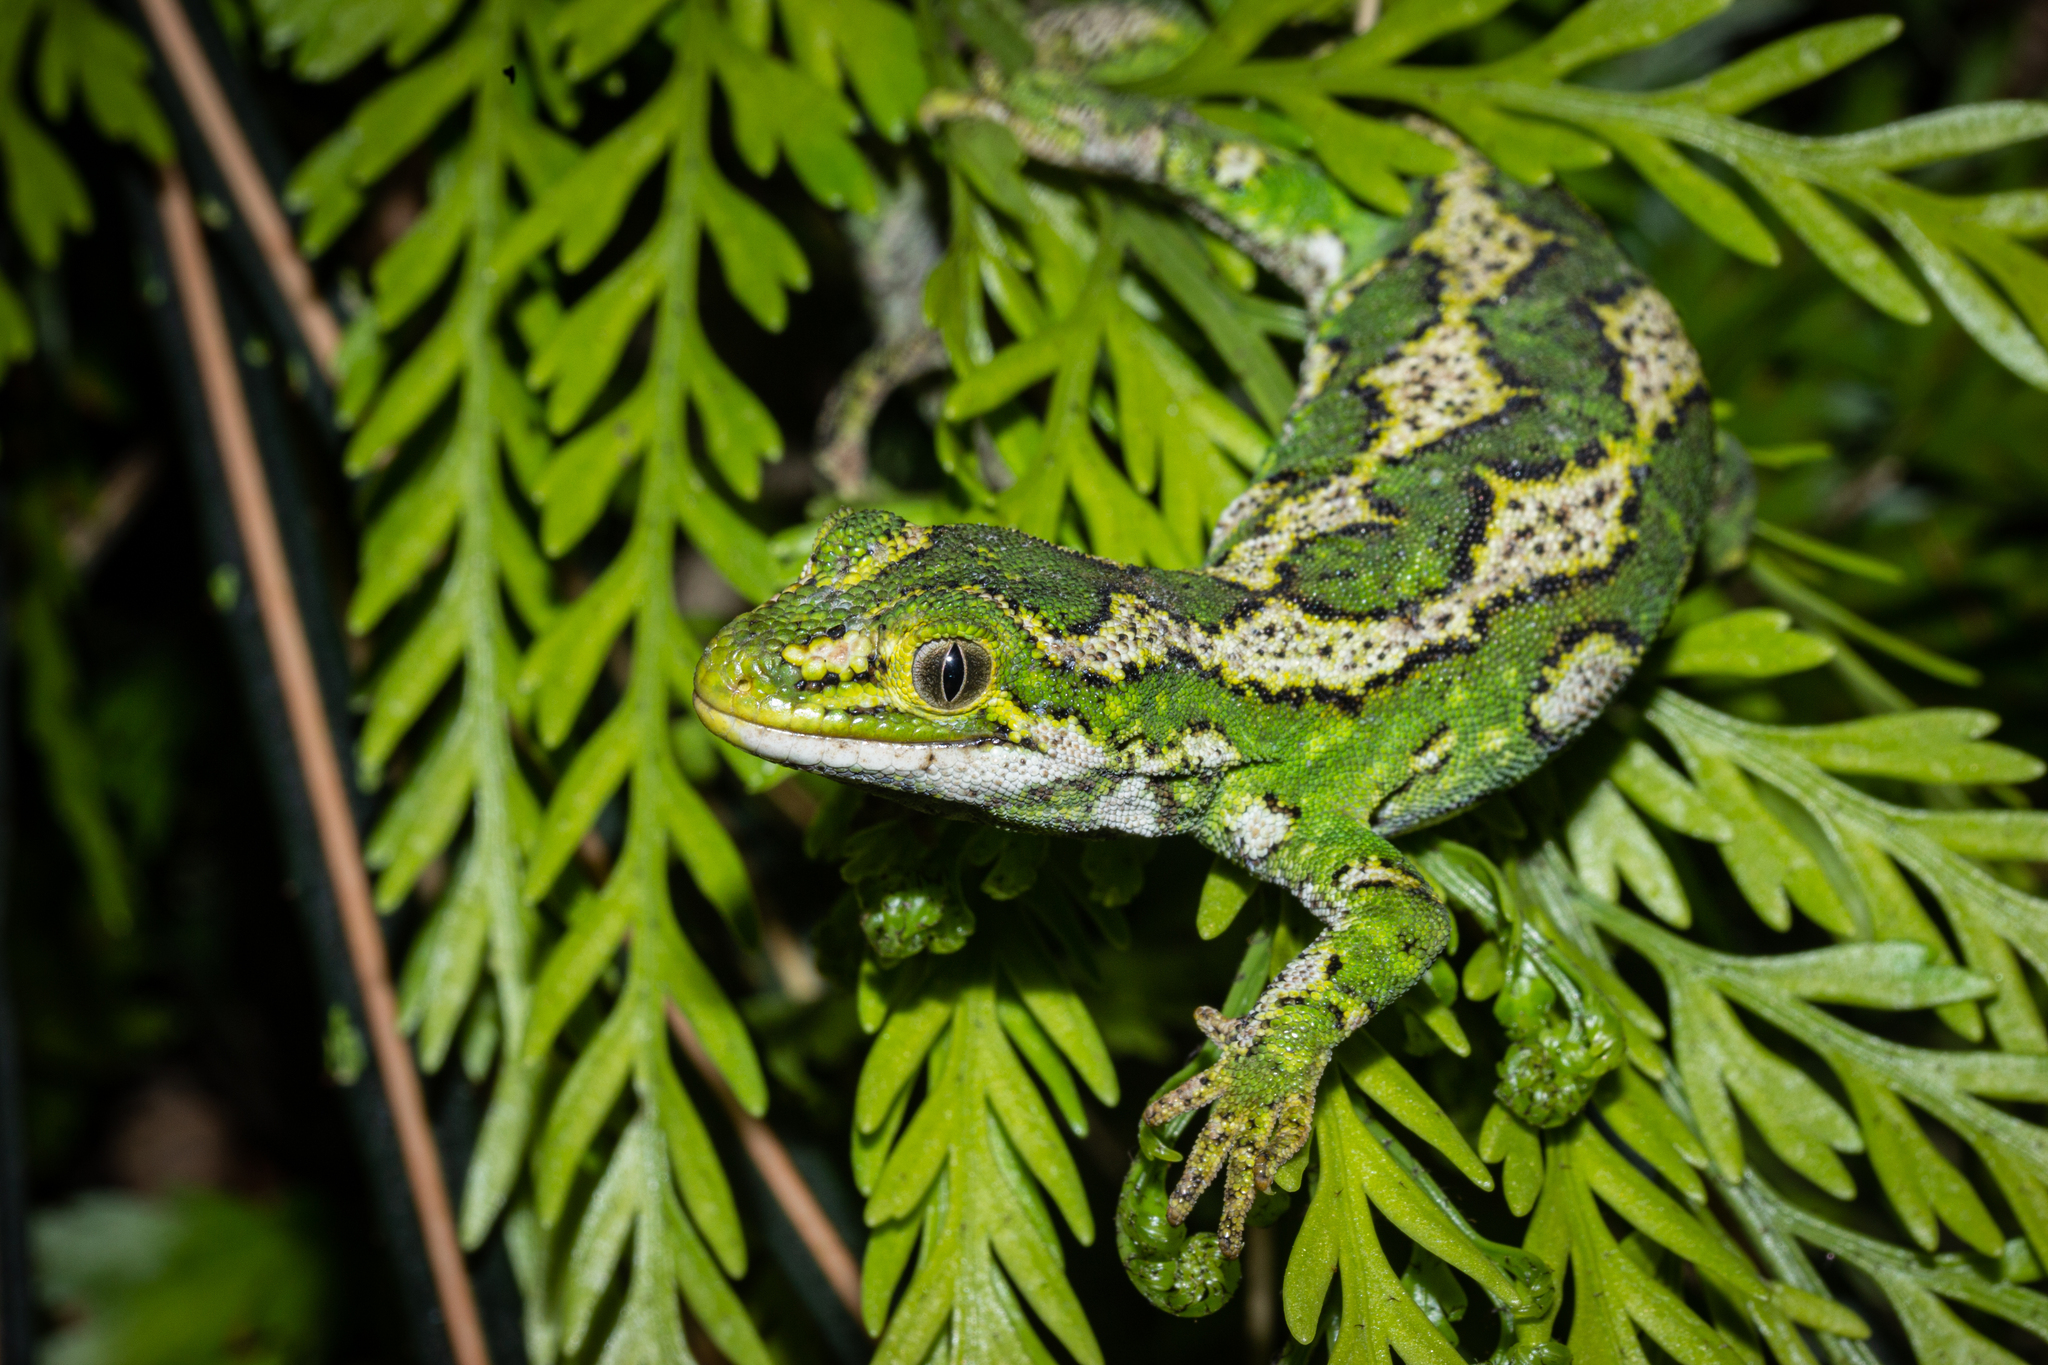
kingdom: Animalia
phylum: Chordata
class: Squamata
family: Diplodactylidae
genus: Naultinus
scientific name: Naultinus gemmeus
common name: Jewelled gecko
